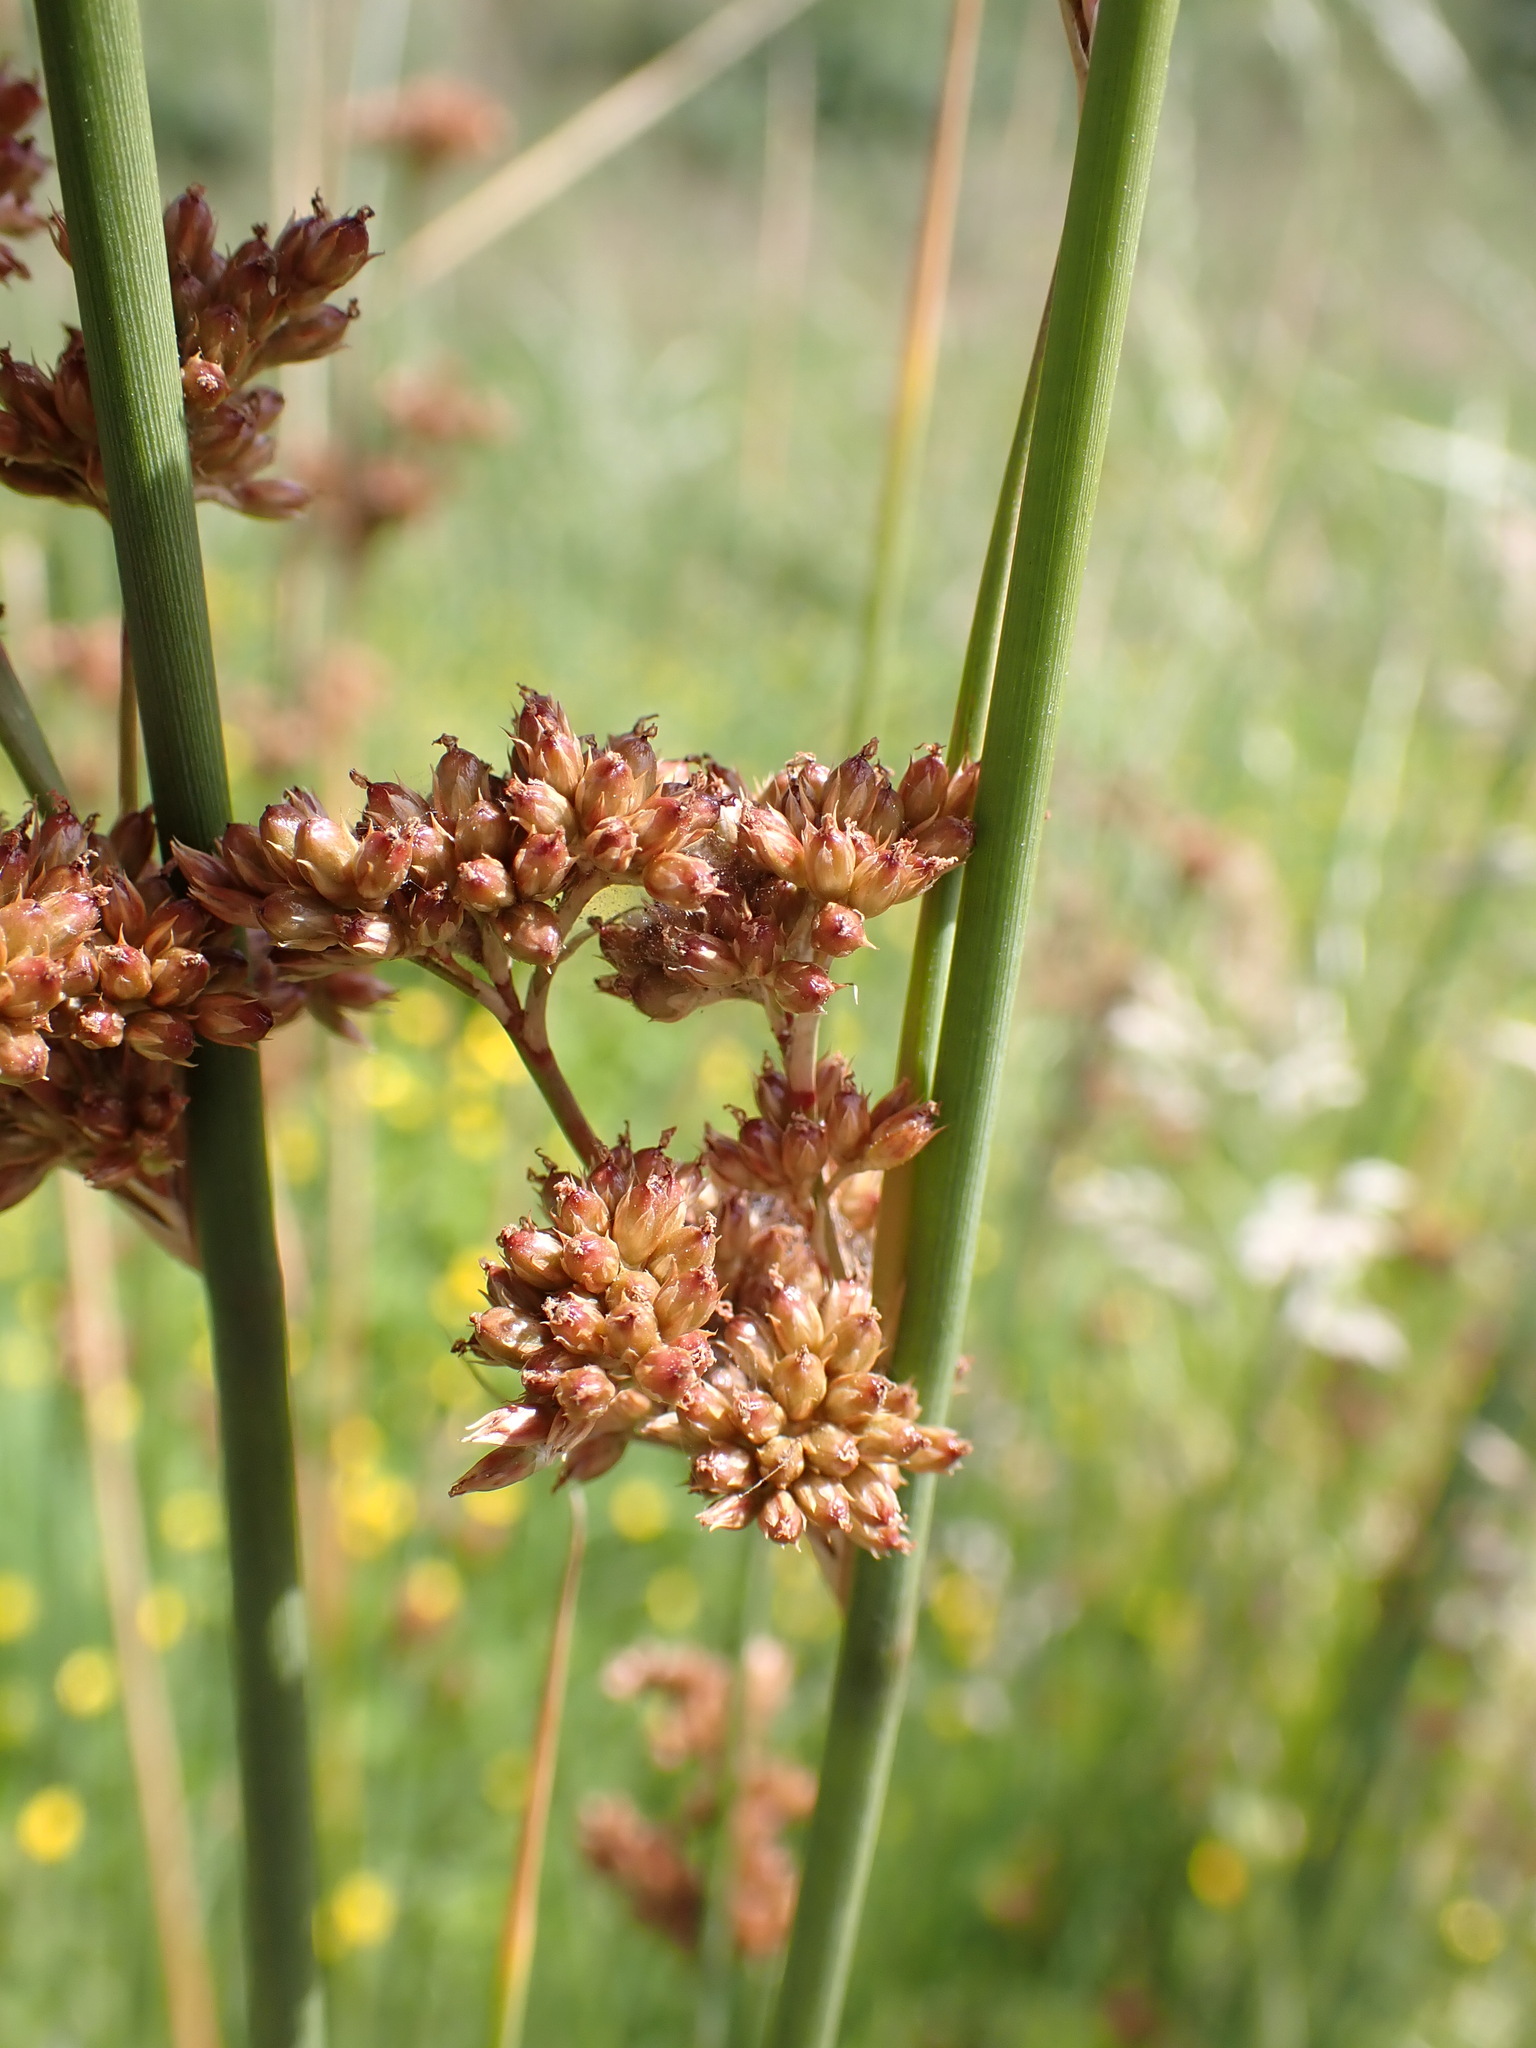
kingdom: Plantae
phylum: Tracheophyta
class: Liliopsida
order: Poales
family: Juncaceae
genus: Juncus
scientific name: Juncus australis
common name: Austral rush
